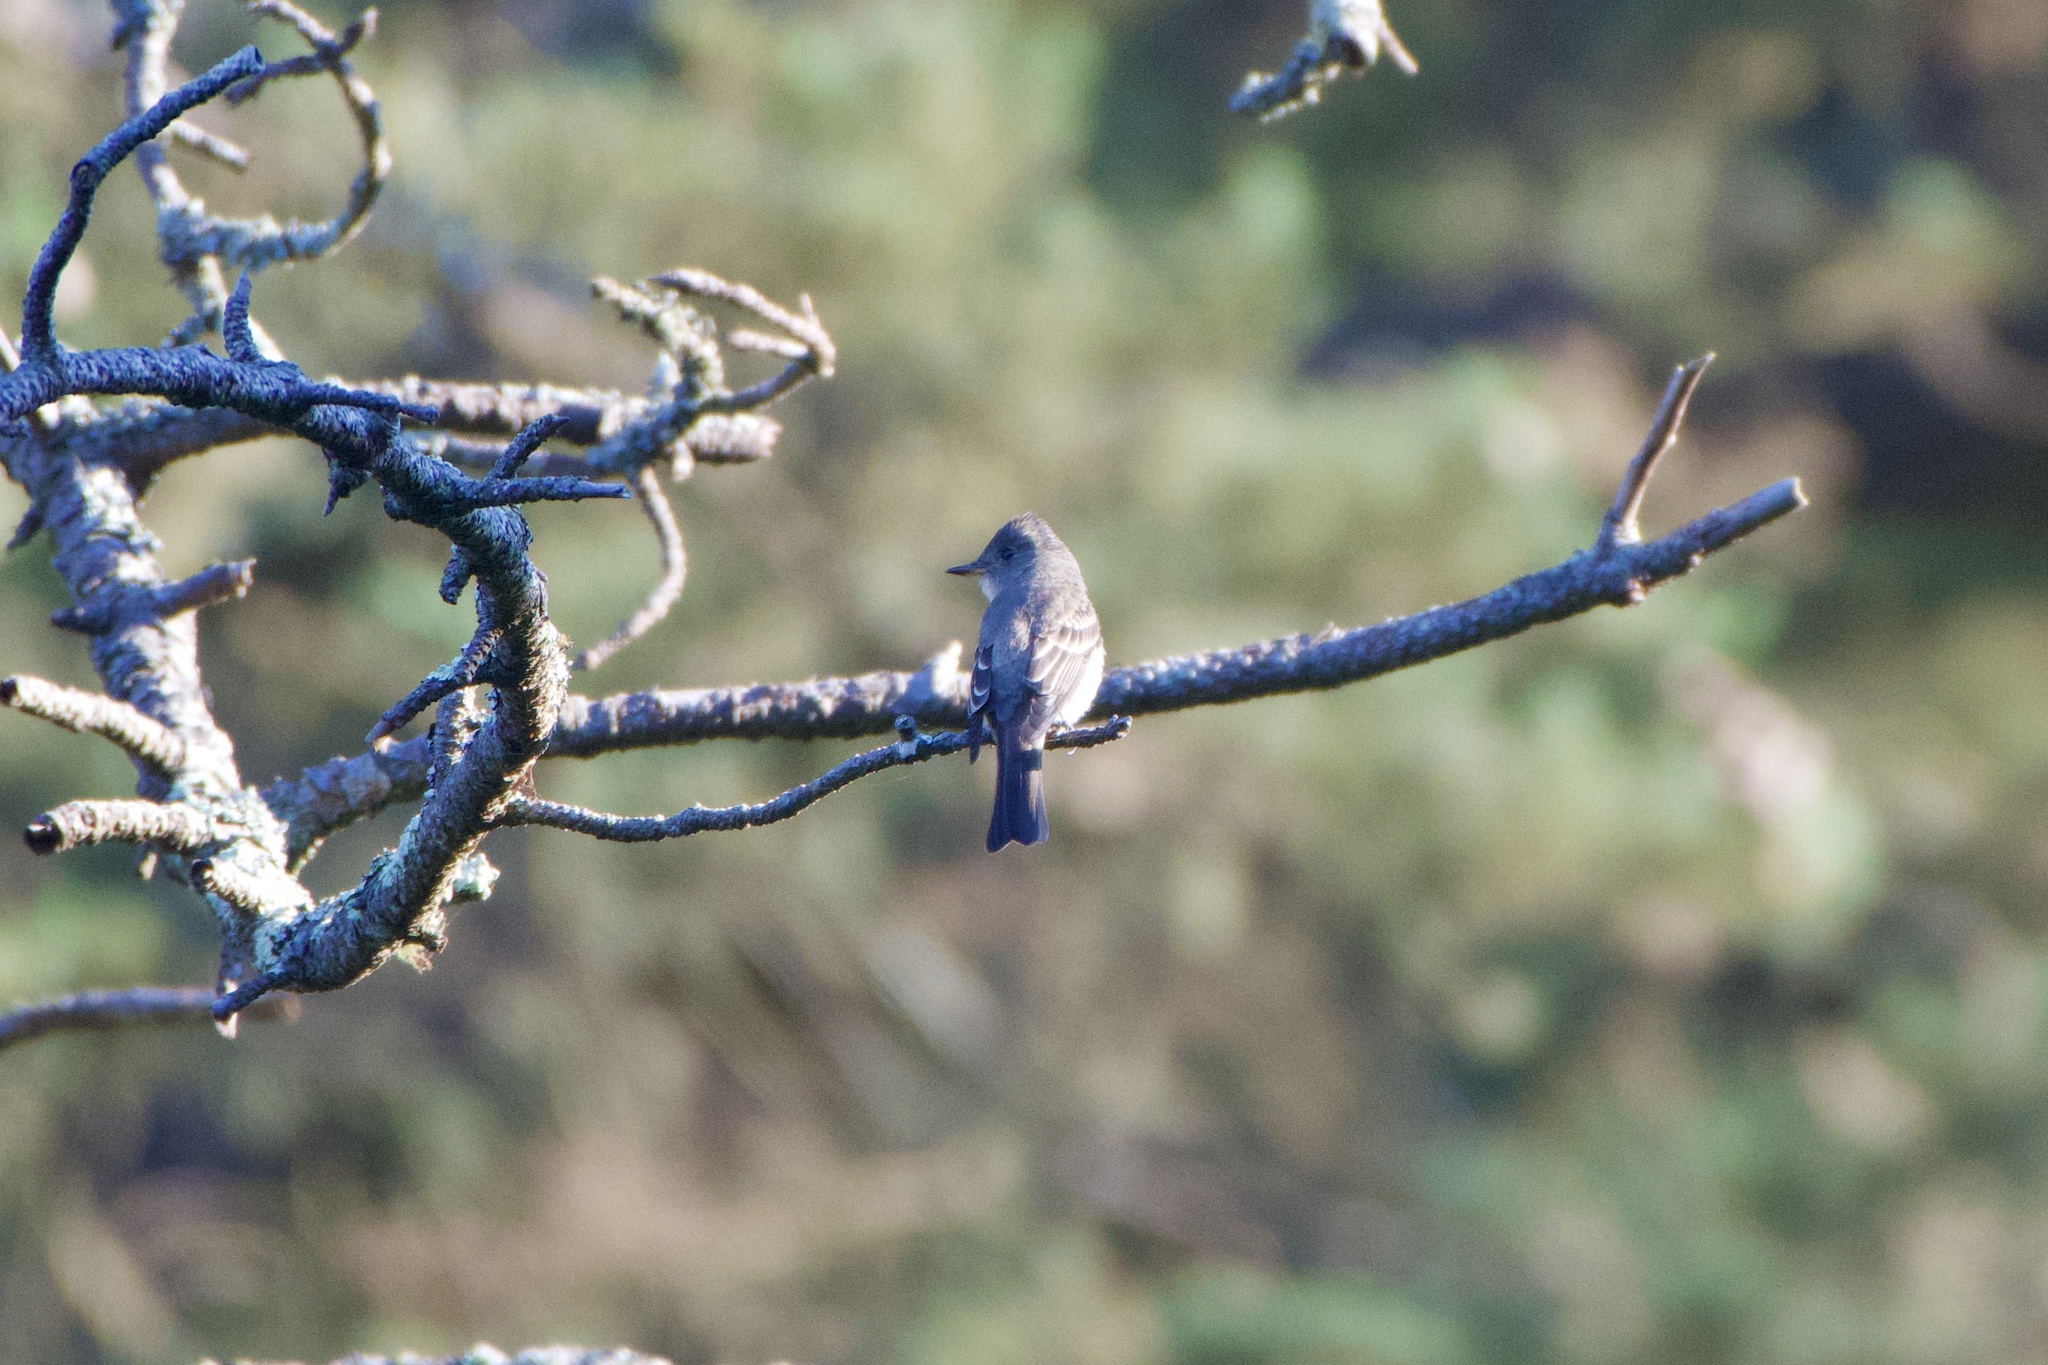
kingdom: Animalia
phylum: Chordata
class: Aves
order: Passeriformes
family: Tyrannidae
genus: Contopus
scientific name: Contopus sordidulus
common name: Western wood-pewee
